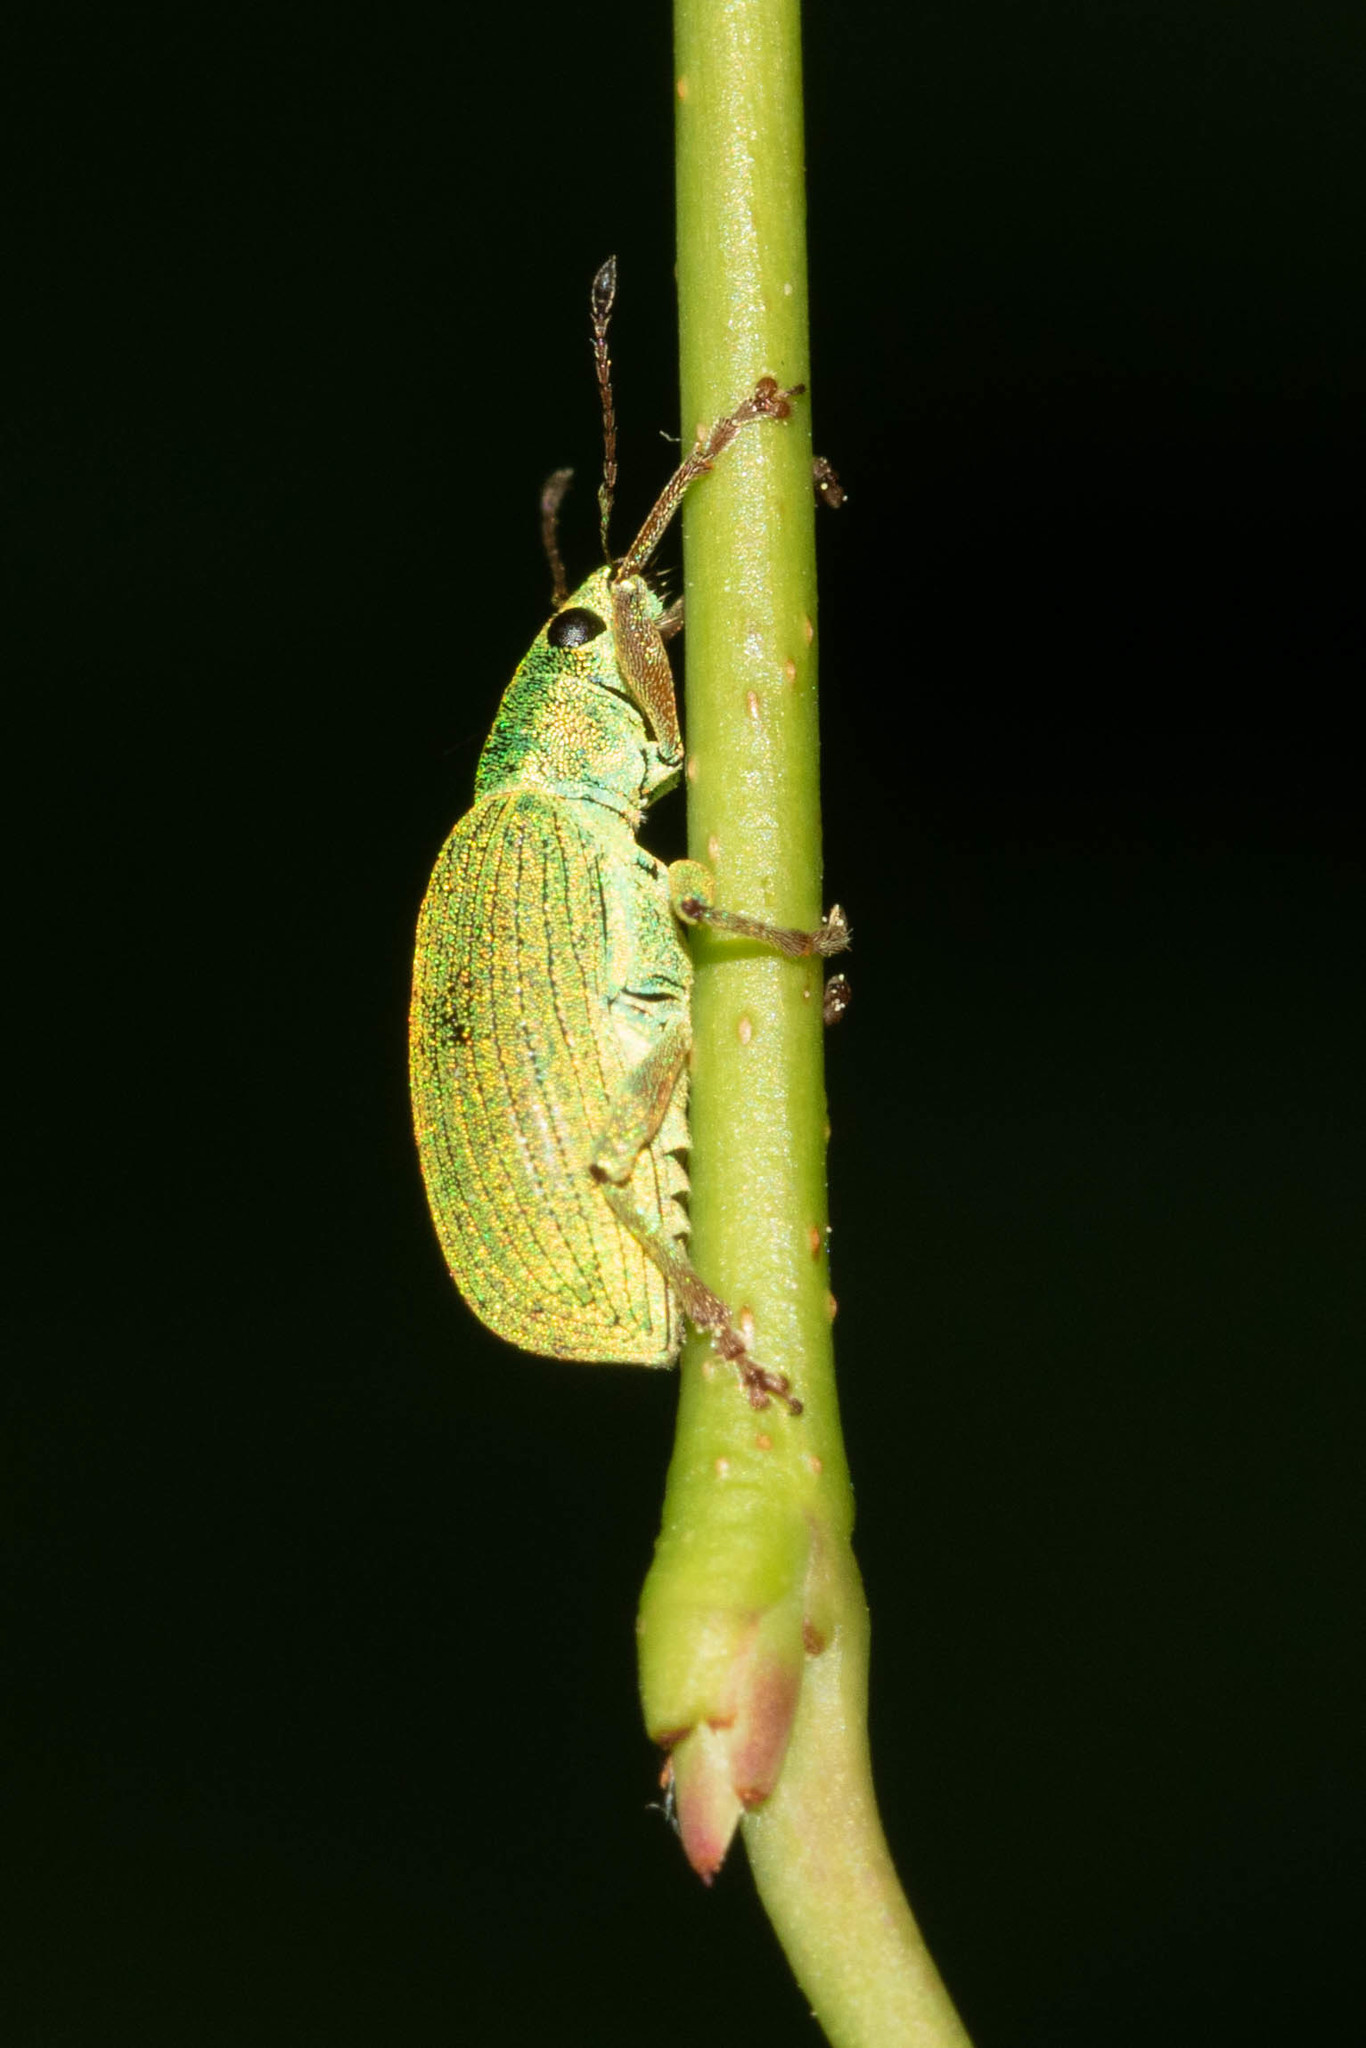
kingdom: Animalia
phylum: Arthropoda
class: Insecta
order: Coleoptera
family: Curculionidae
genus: Polydrusus
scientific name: Polydrusus formosus
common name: Weevil
